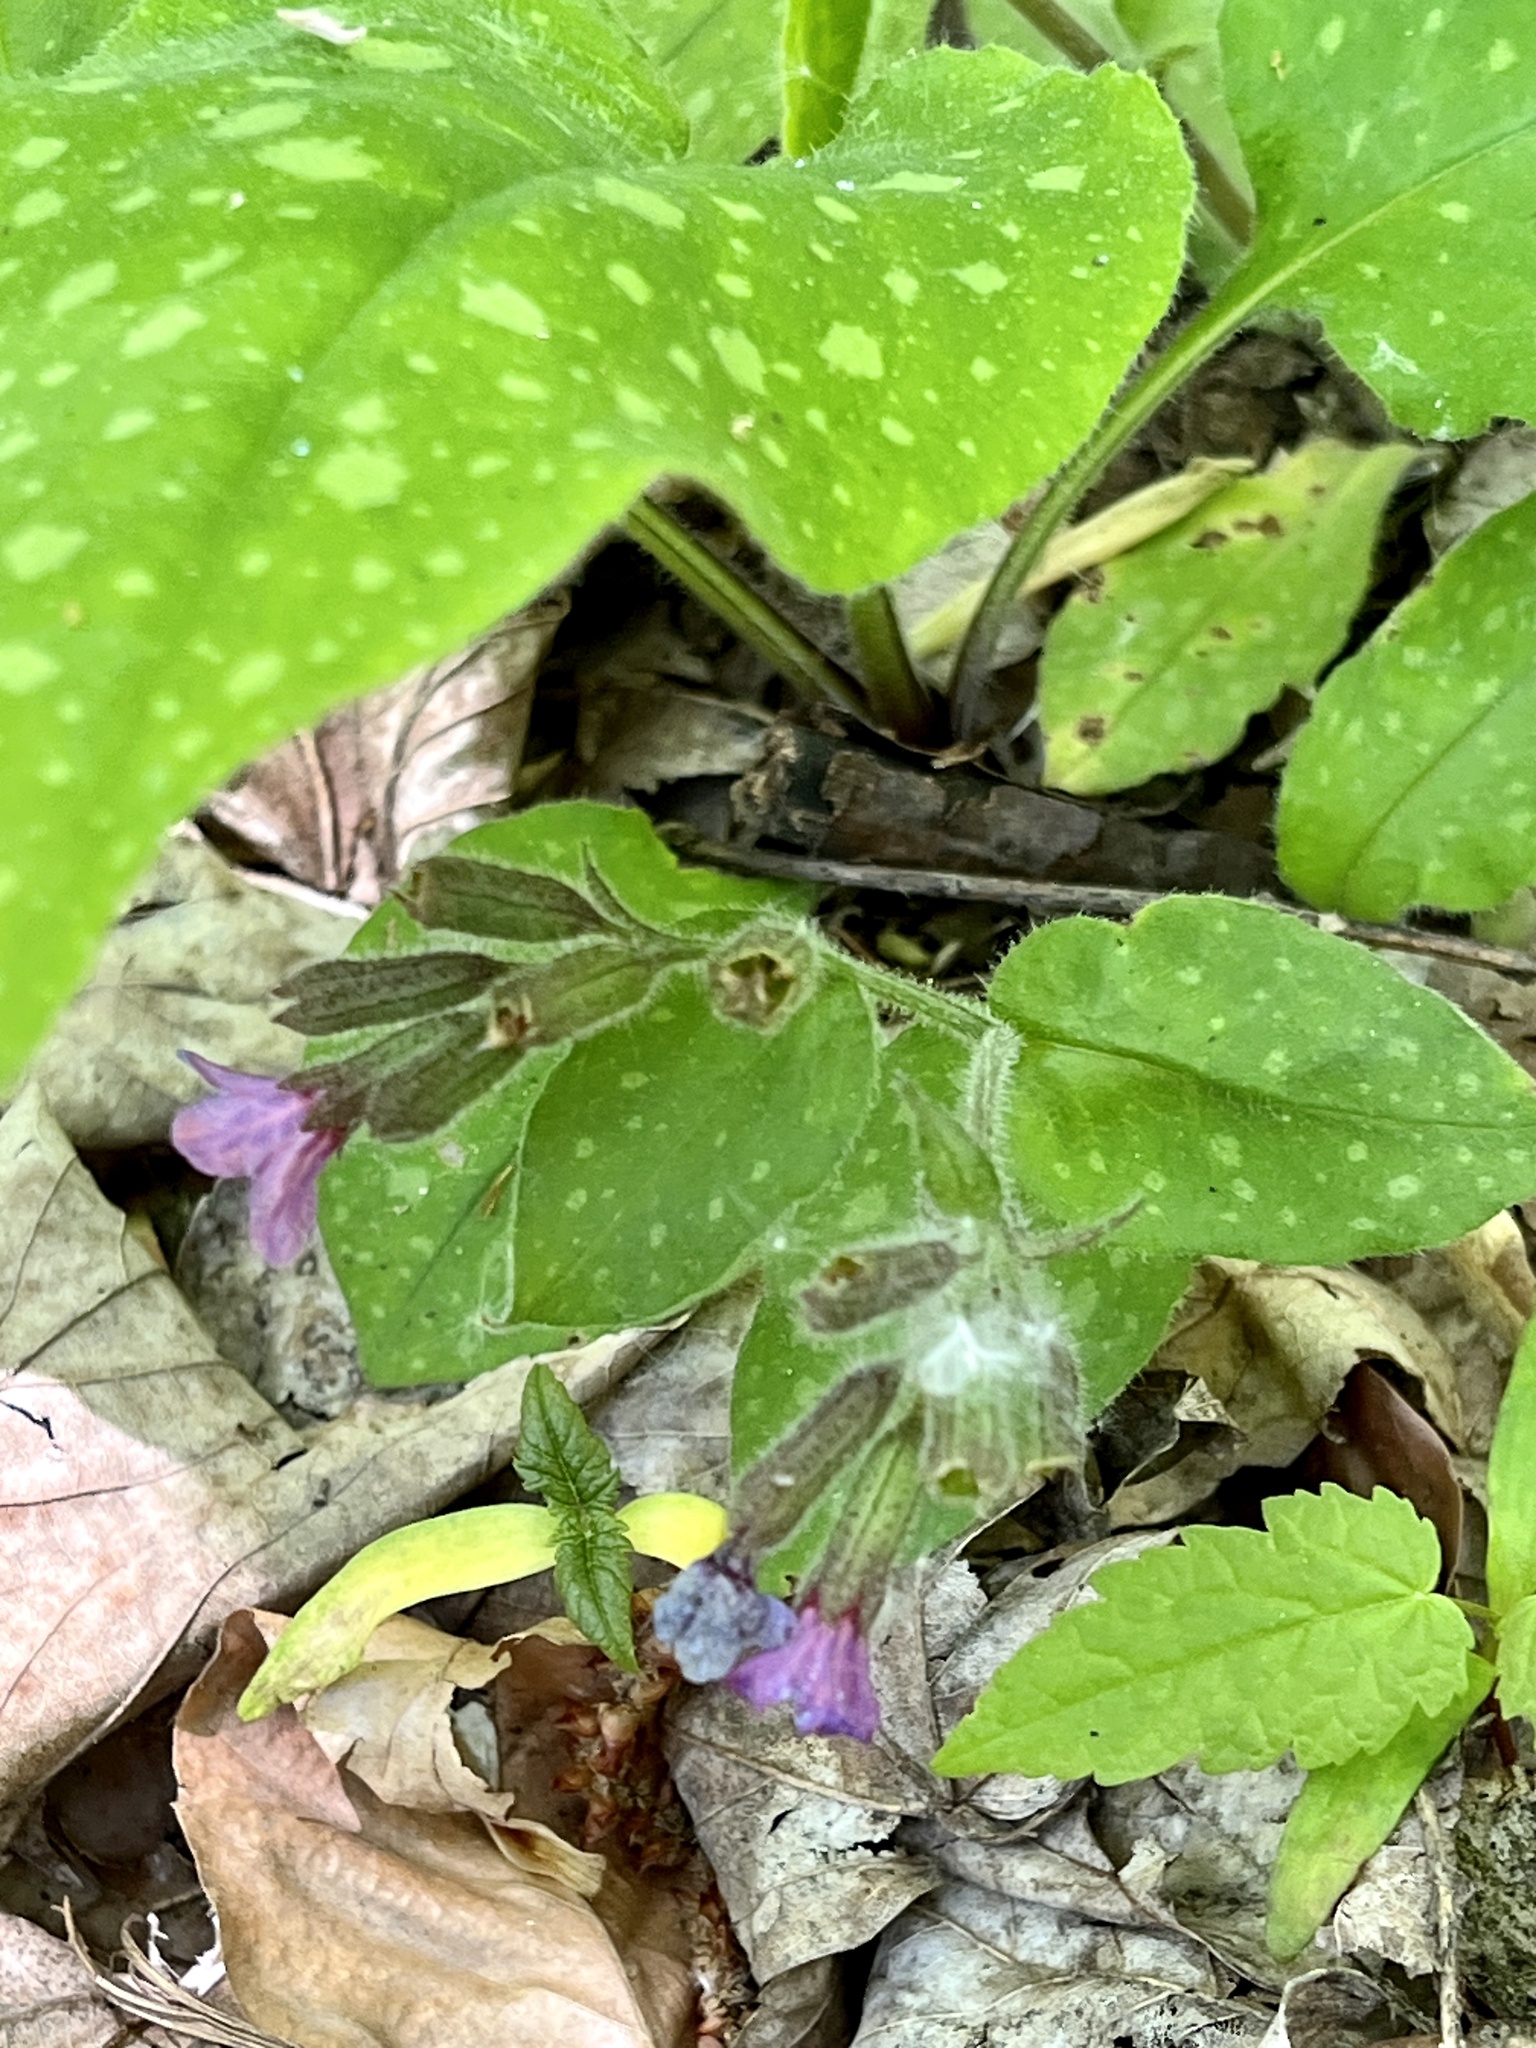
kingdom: Plantae
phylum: Tracheophyta
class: Magnoliopsida
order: Boraginales
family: Boraginaceae
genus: Pulmonaria
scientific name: Pulmonaria officinalis
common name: Lungwort
